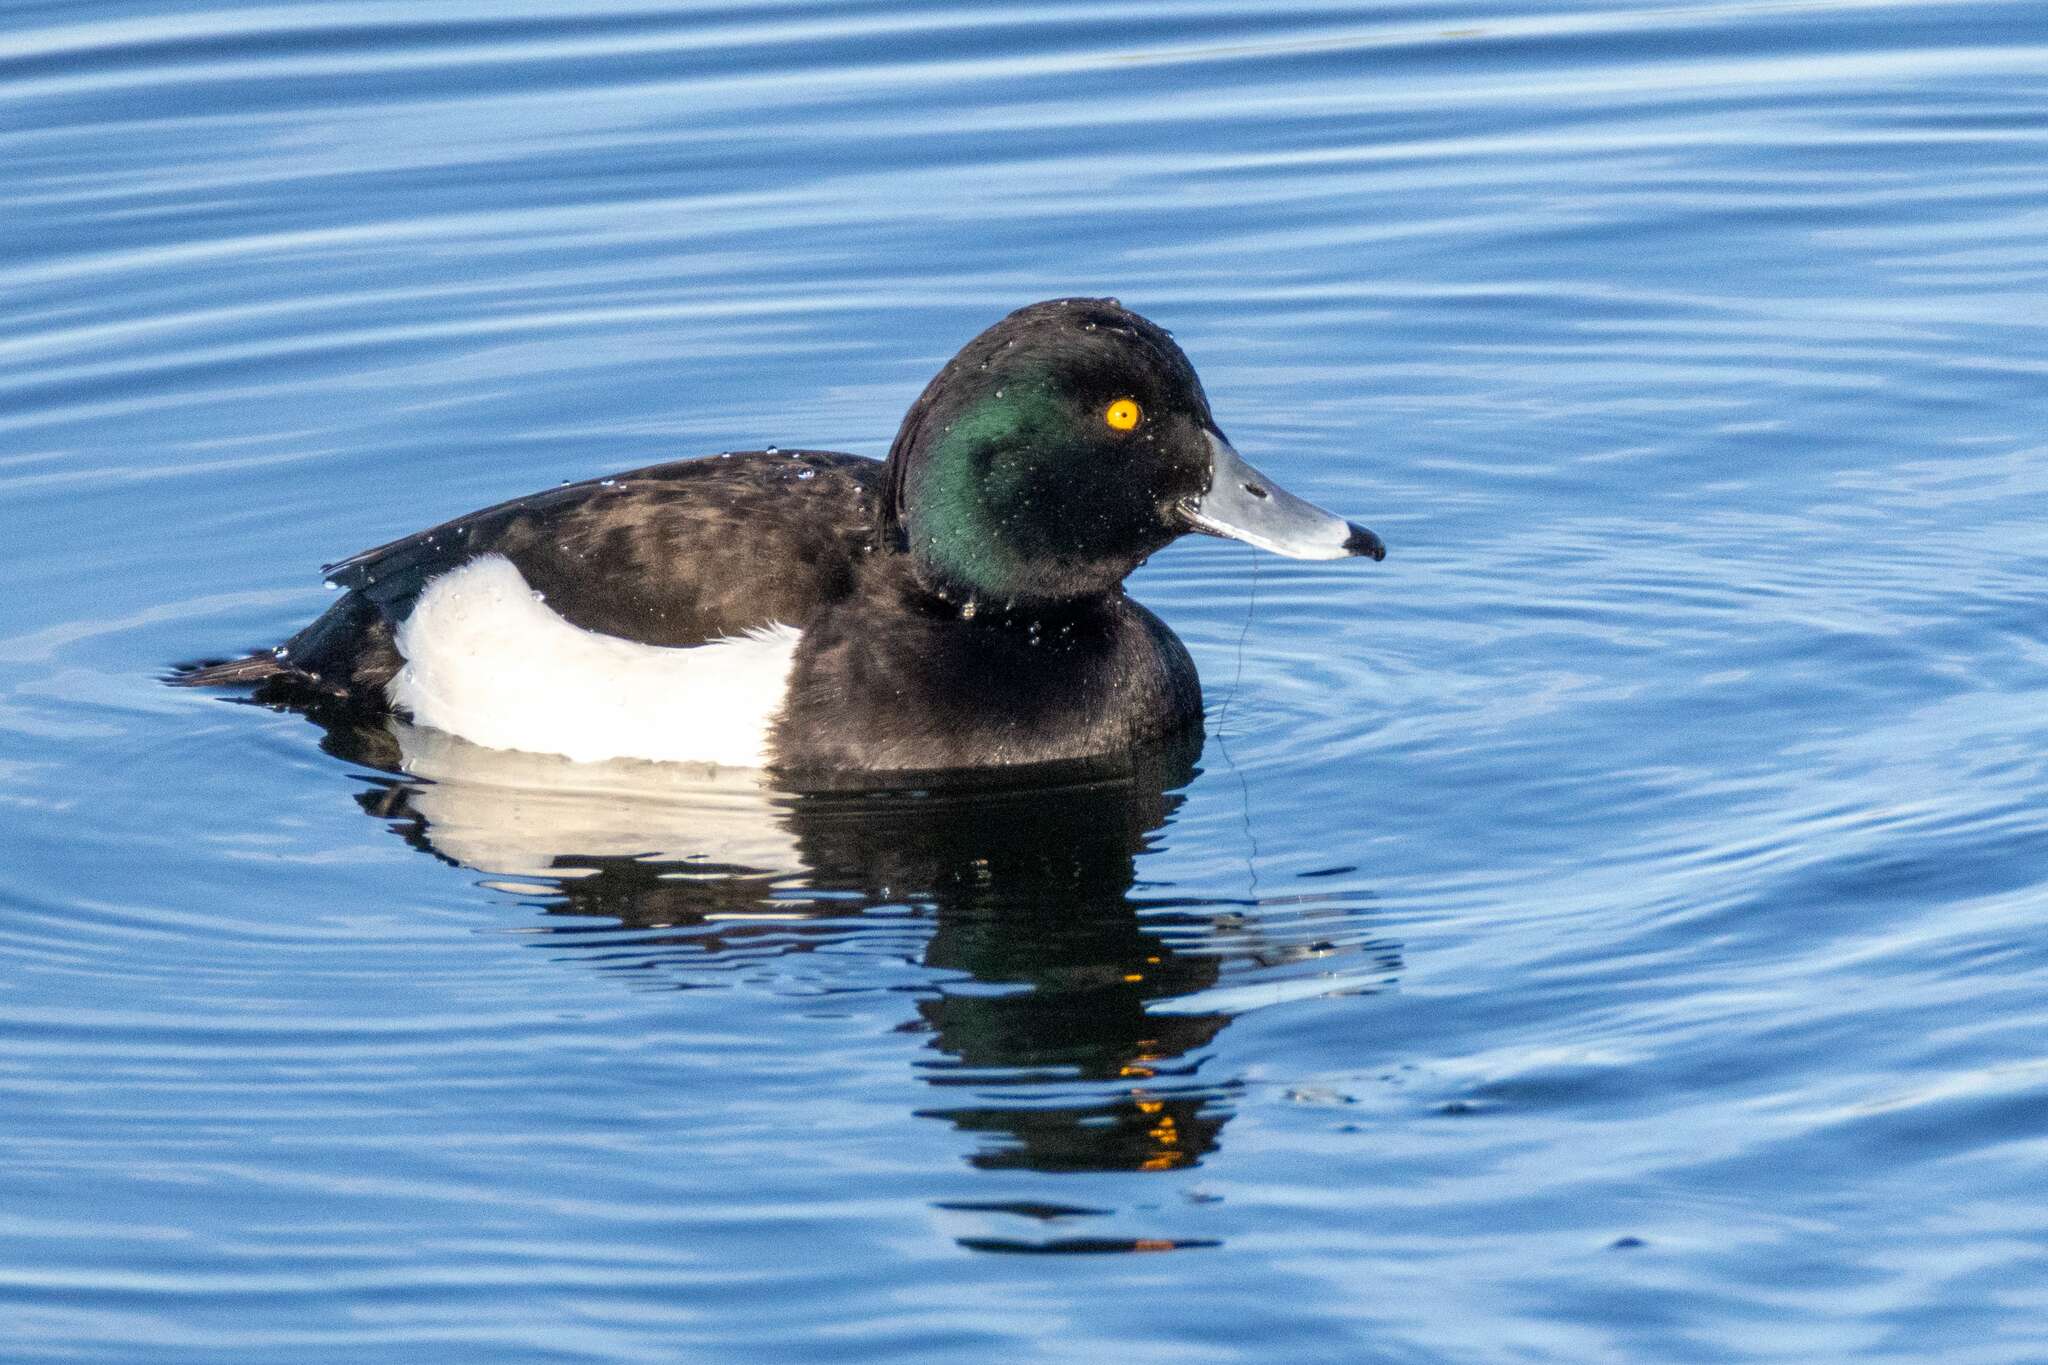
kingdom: Animalia
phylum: Chordata
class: Aves
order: Anseriformes
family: Anatidae
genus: Aythya
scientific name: Aythya fuligula
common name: Tufted duck
